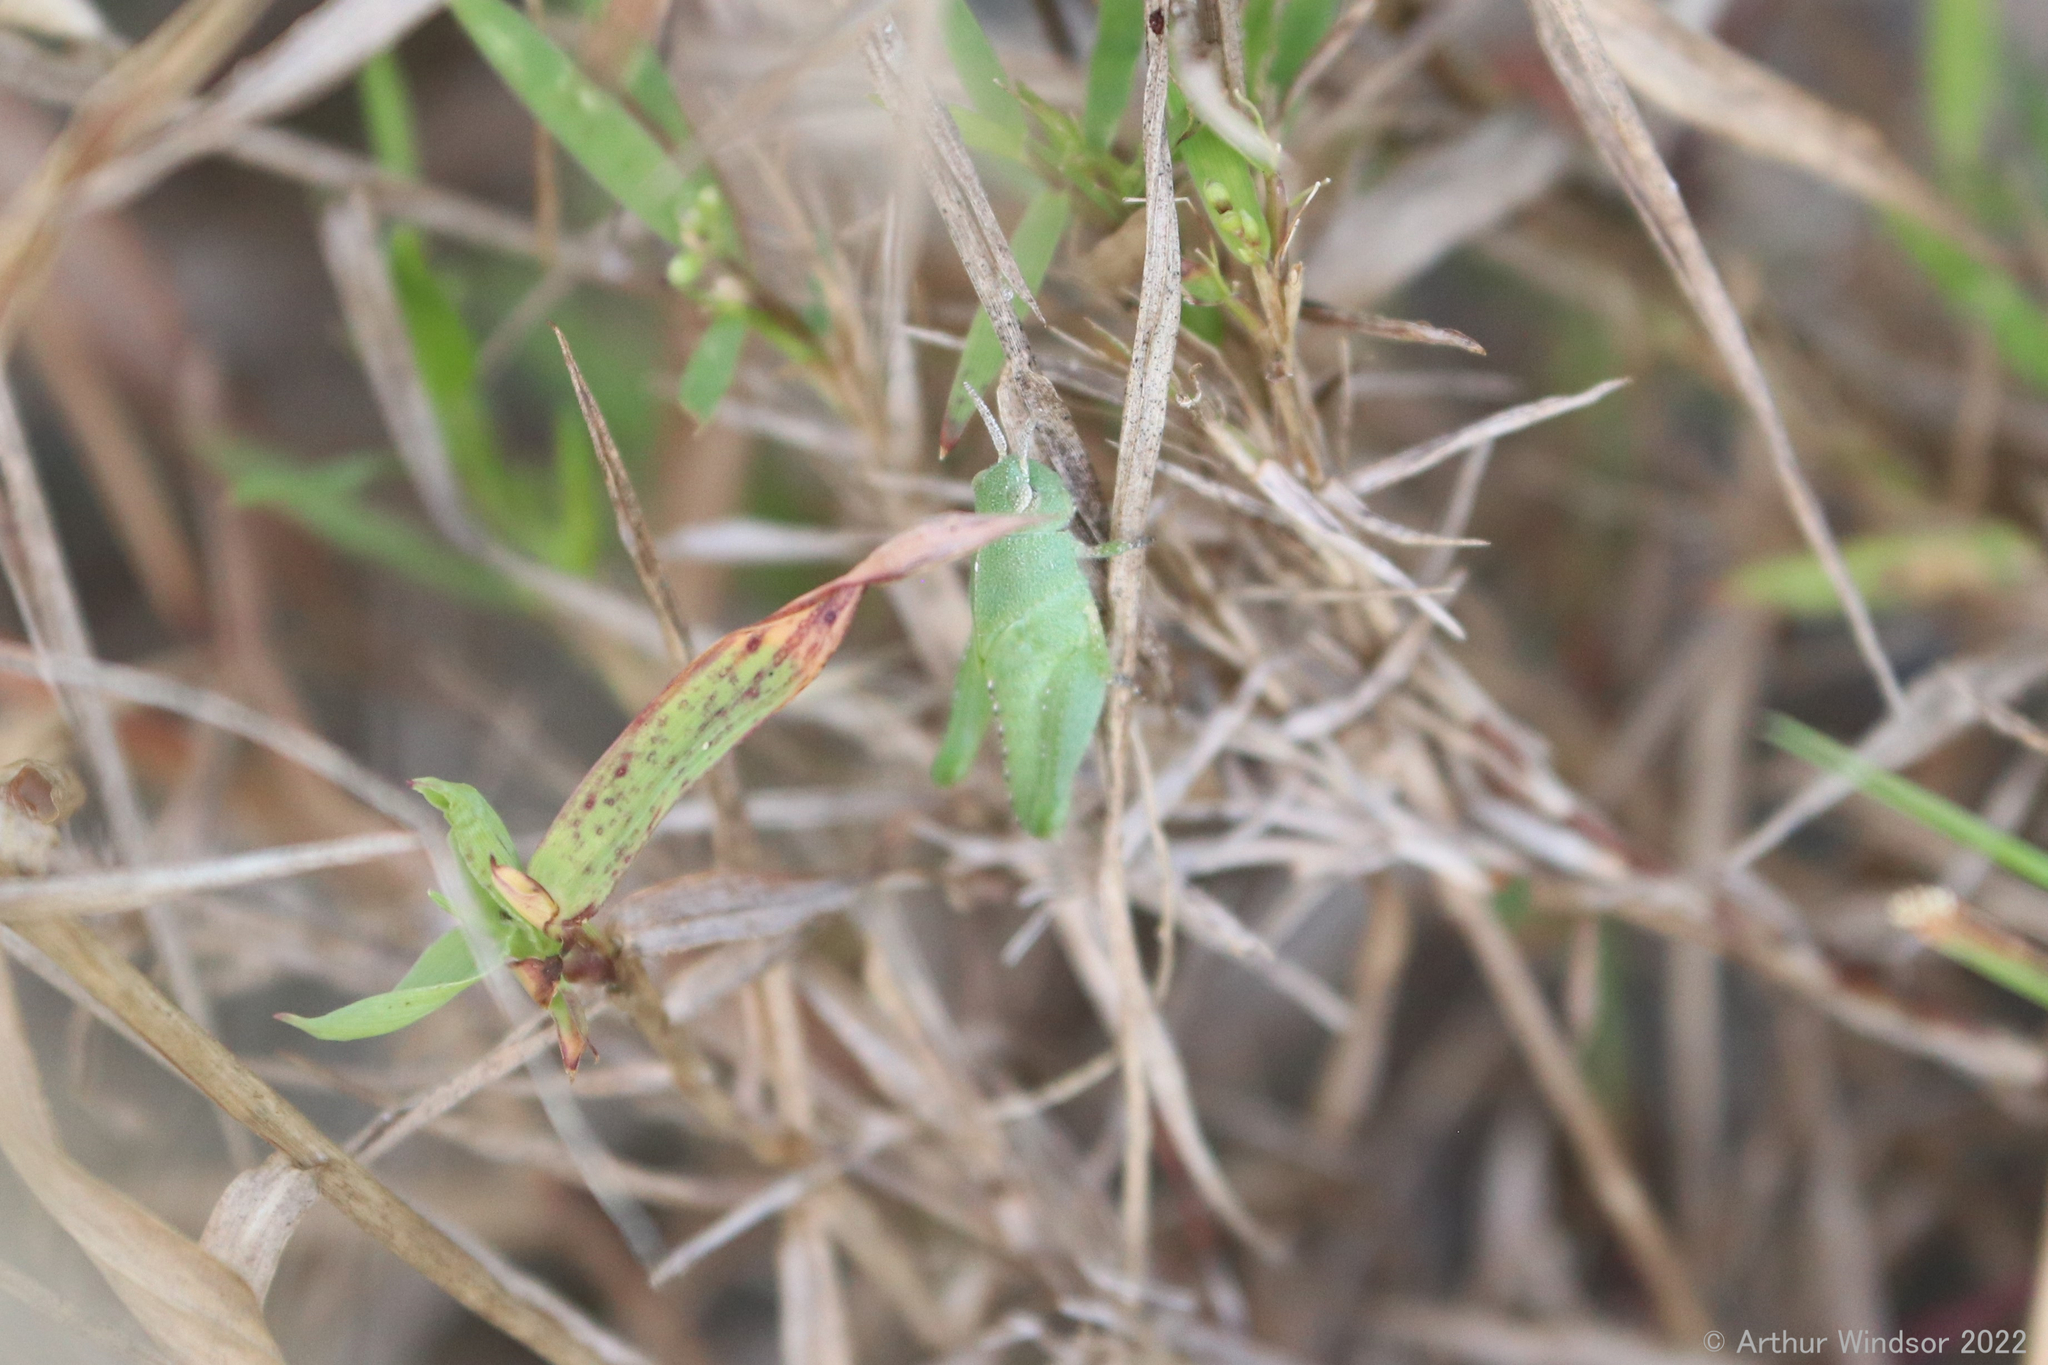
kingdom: Animalia
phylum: Arthropoda
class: Insecta
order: Orthoptera
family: Acrididae
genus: Chortophaga
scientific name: Chortophaga australior
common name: Southern green-striped grasshopper
